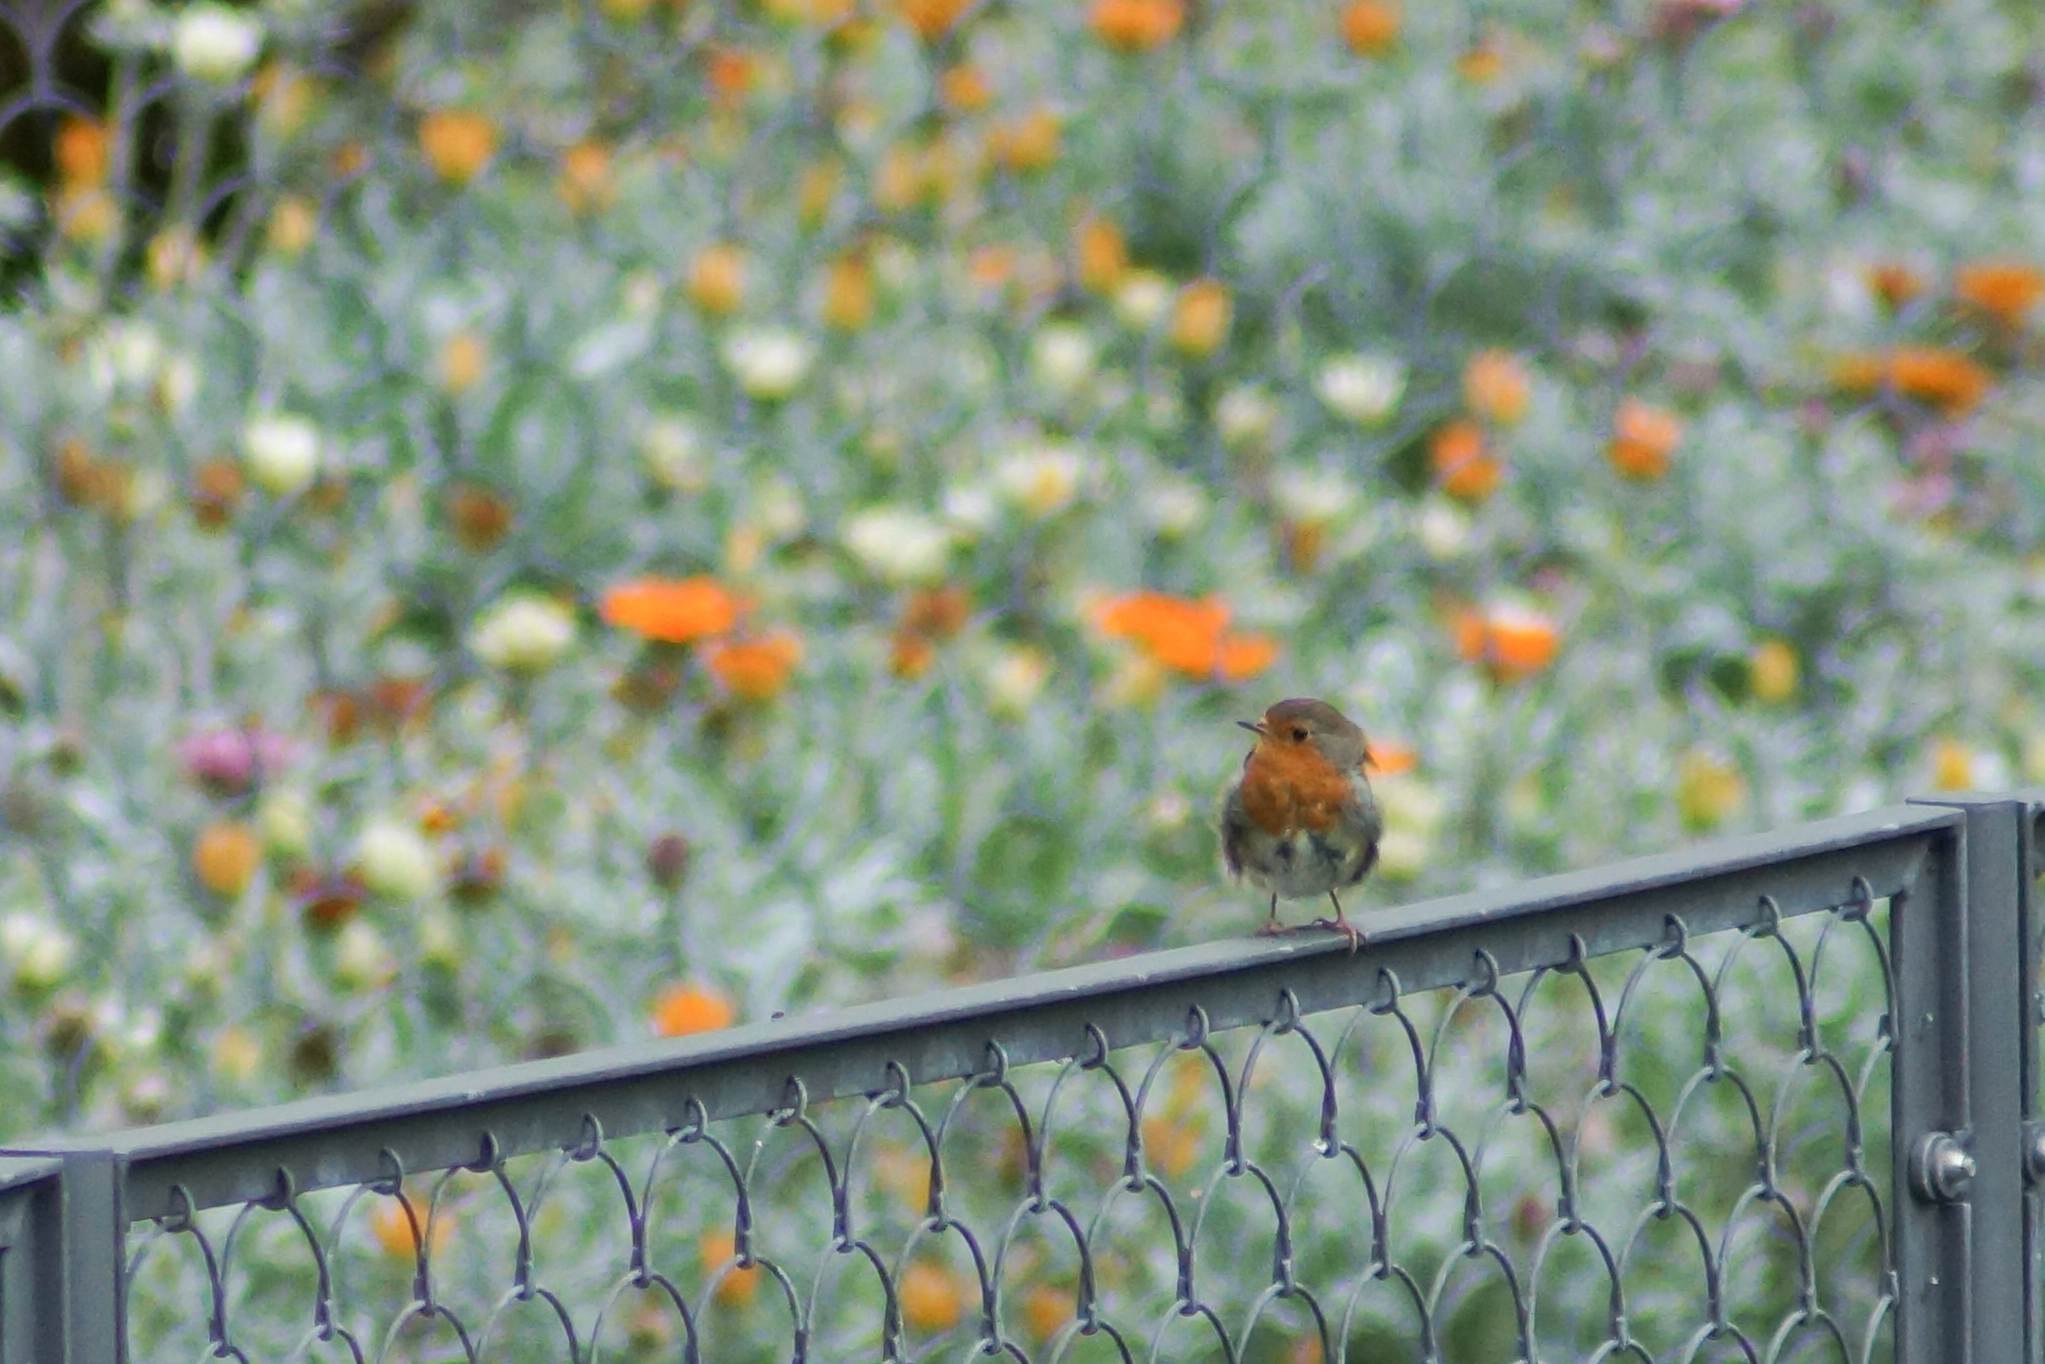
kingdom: Animalia
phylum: Chordata
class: Aves
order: Passeriformes
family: Muscicapidae
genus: Erithacus
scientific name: Erithacus rubecula
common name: European robin
